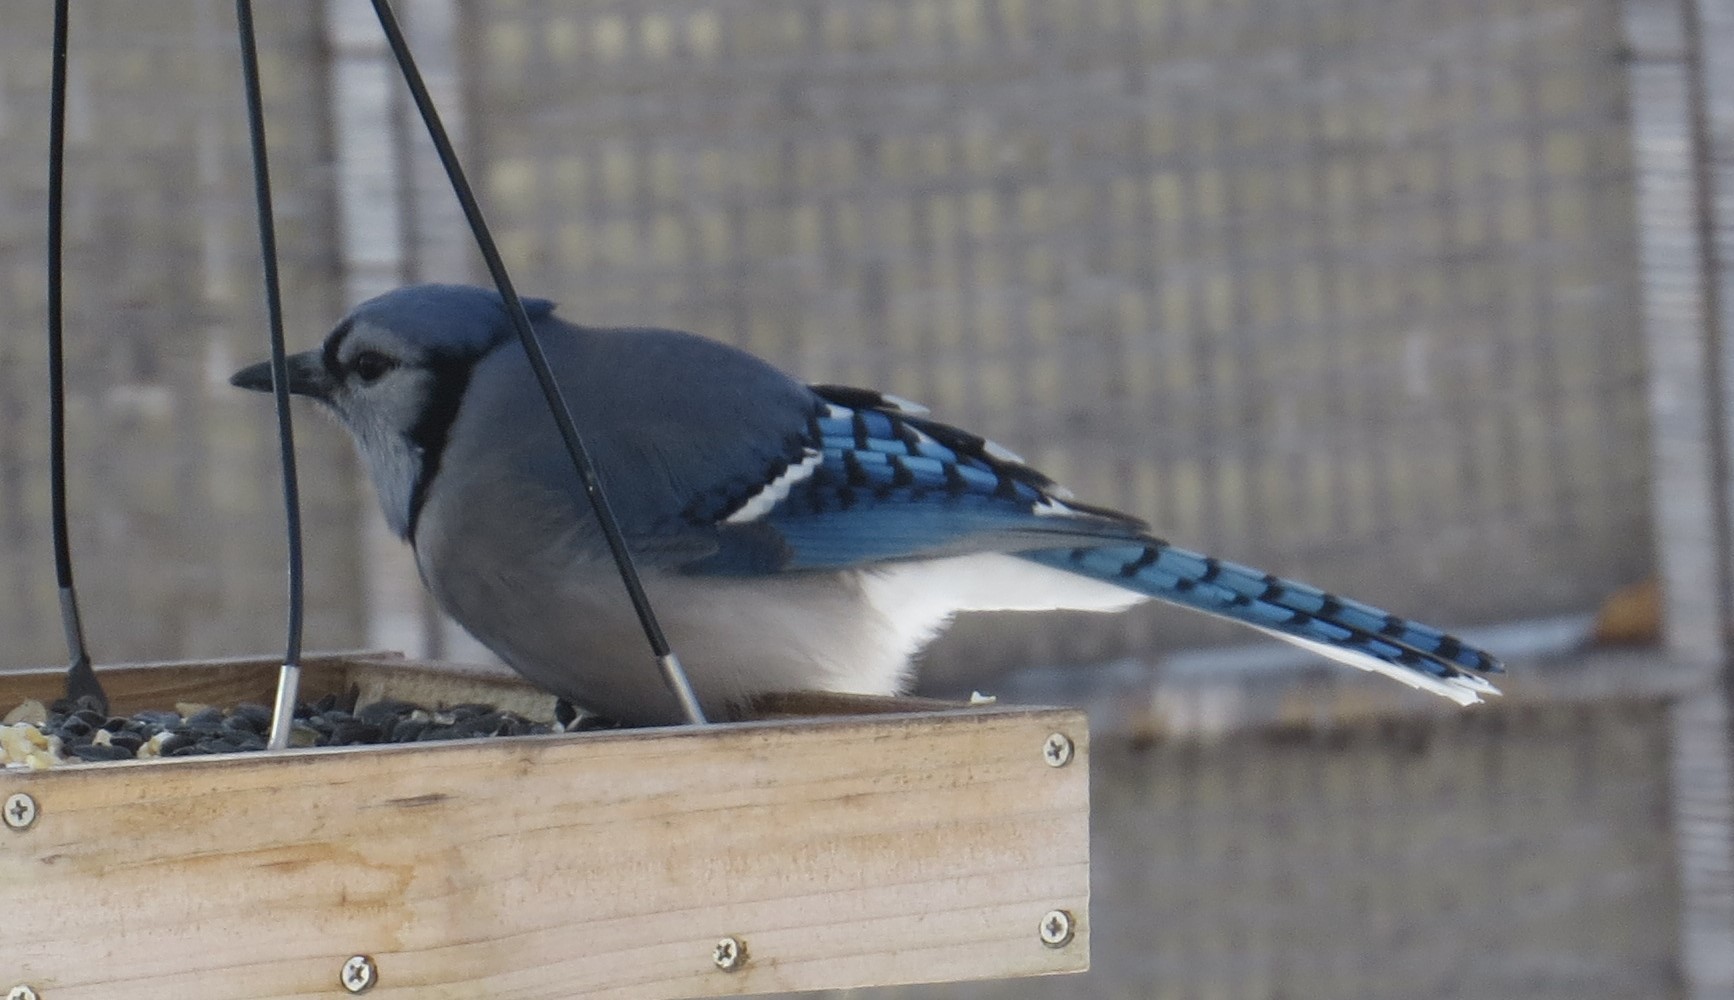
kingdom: Animalia
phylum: Chordata
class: Aves
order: Passeriformes
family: Corvidae
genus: Cyanocitta
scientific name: Cyanocitta cristata
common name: Blue jay
